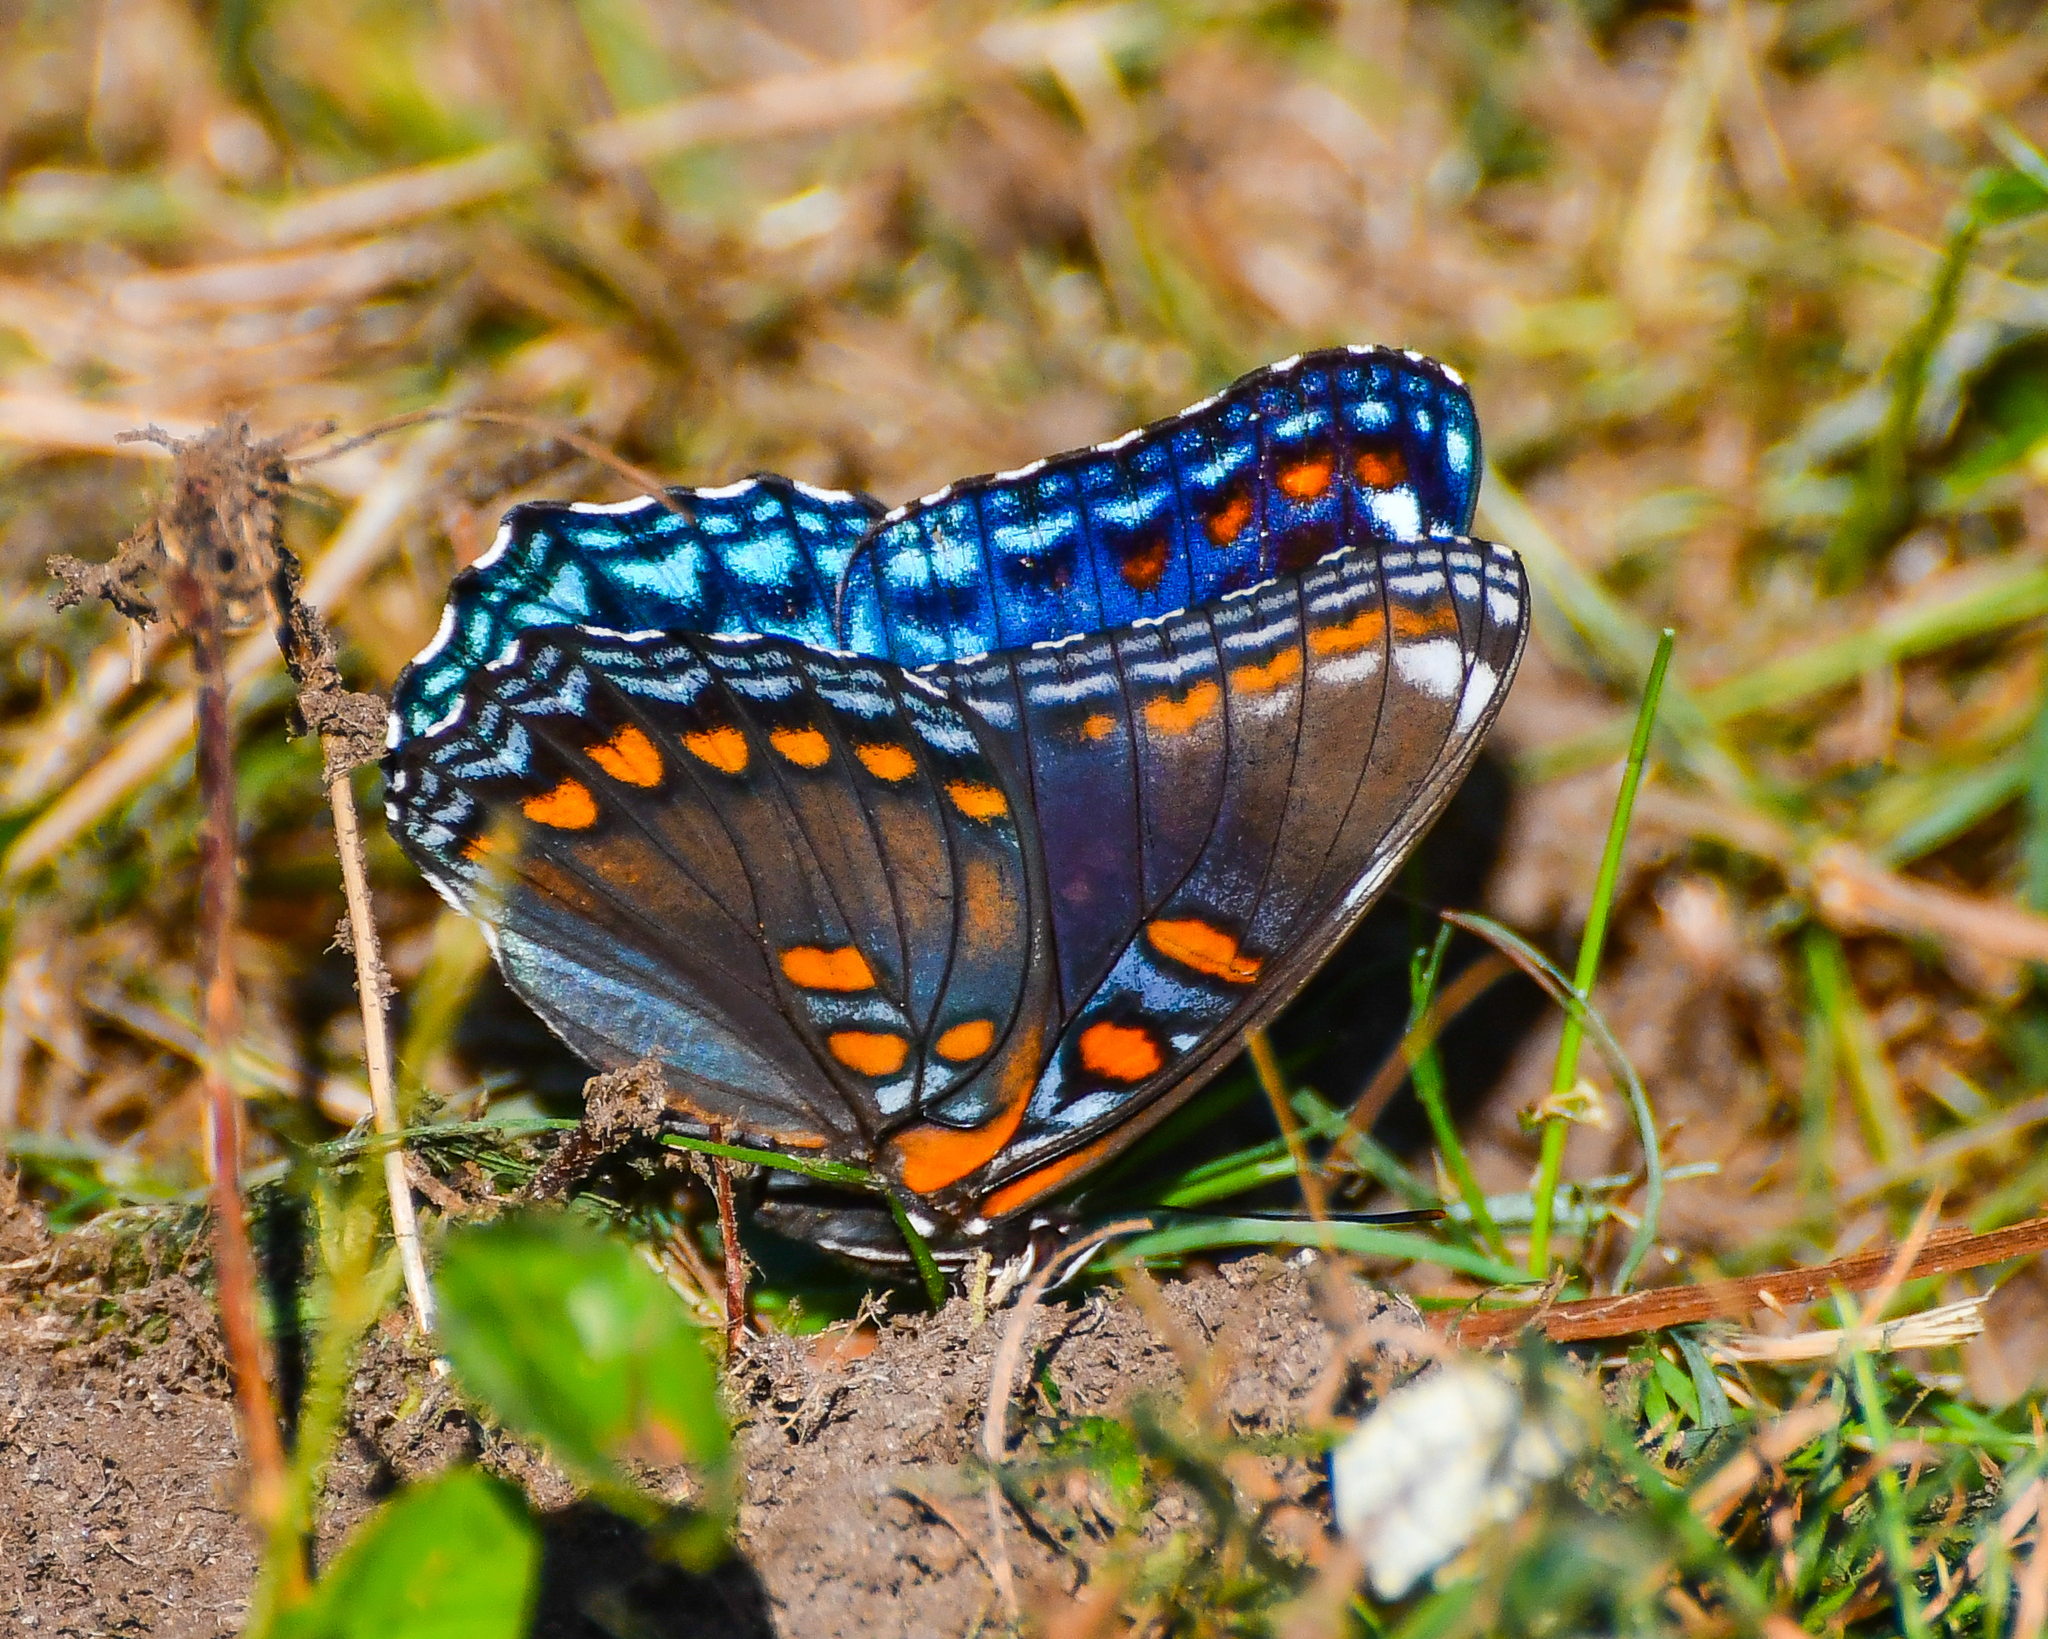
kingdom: Animalia
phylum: Arthropoda
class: Insecta
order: Lepidoptera
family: Nymphalidae
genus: Limenitis
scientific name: Limenitis astyanax
